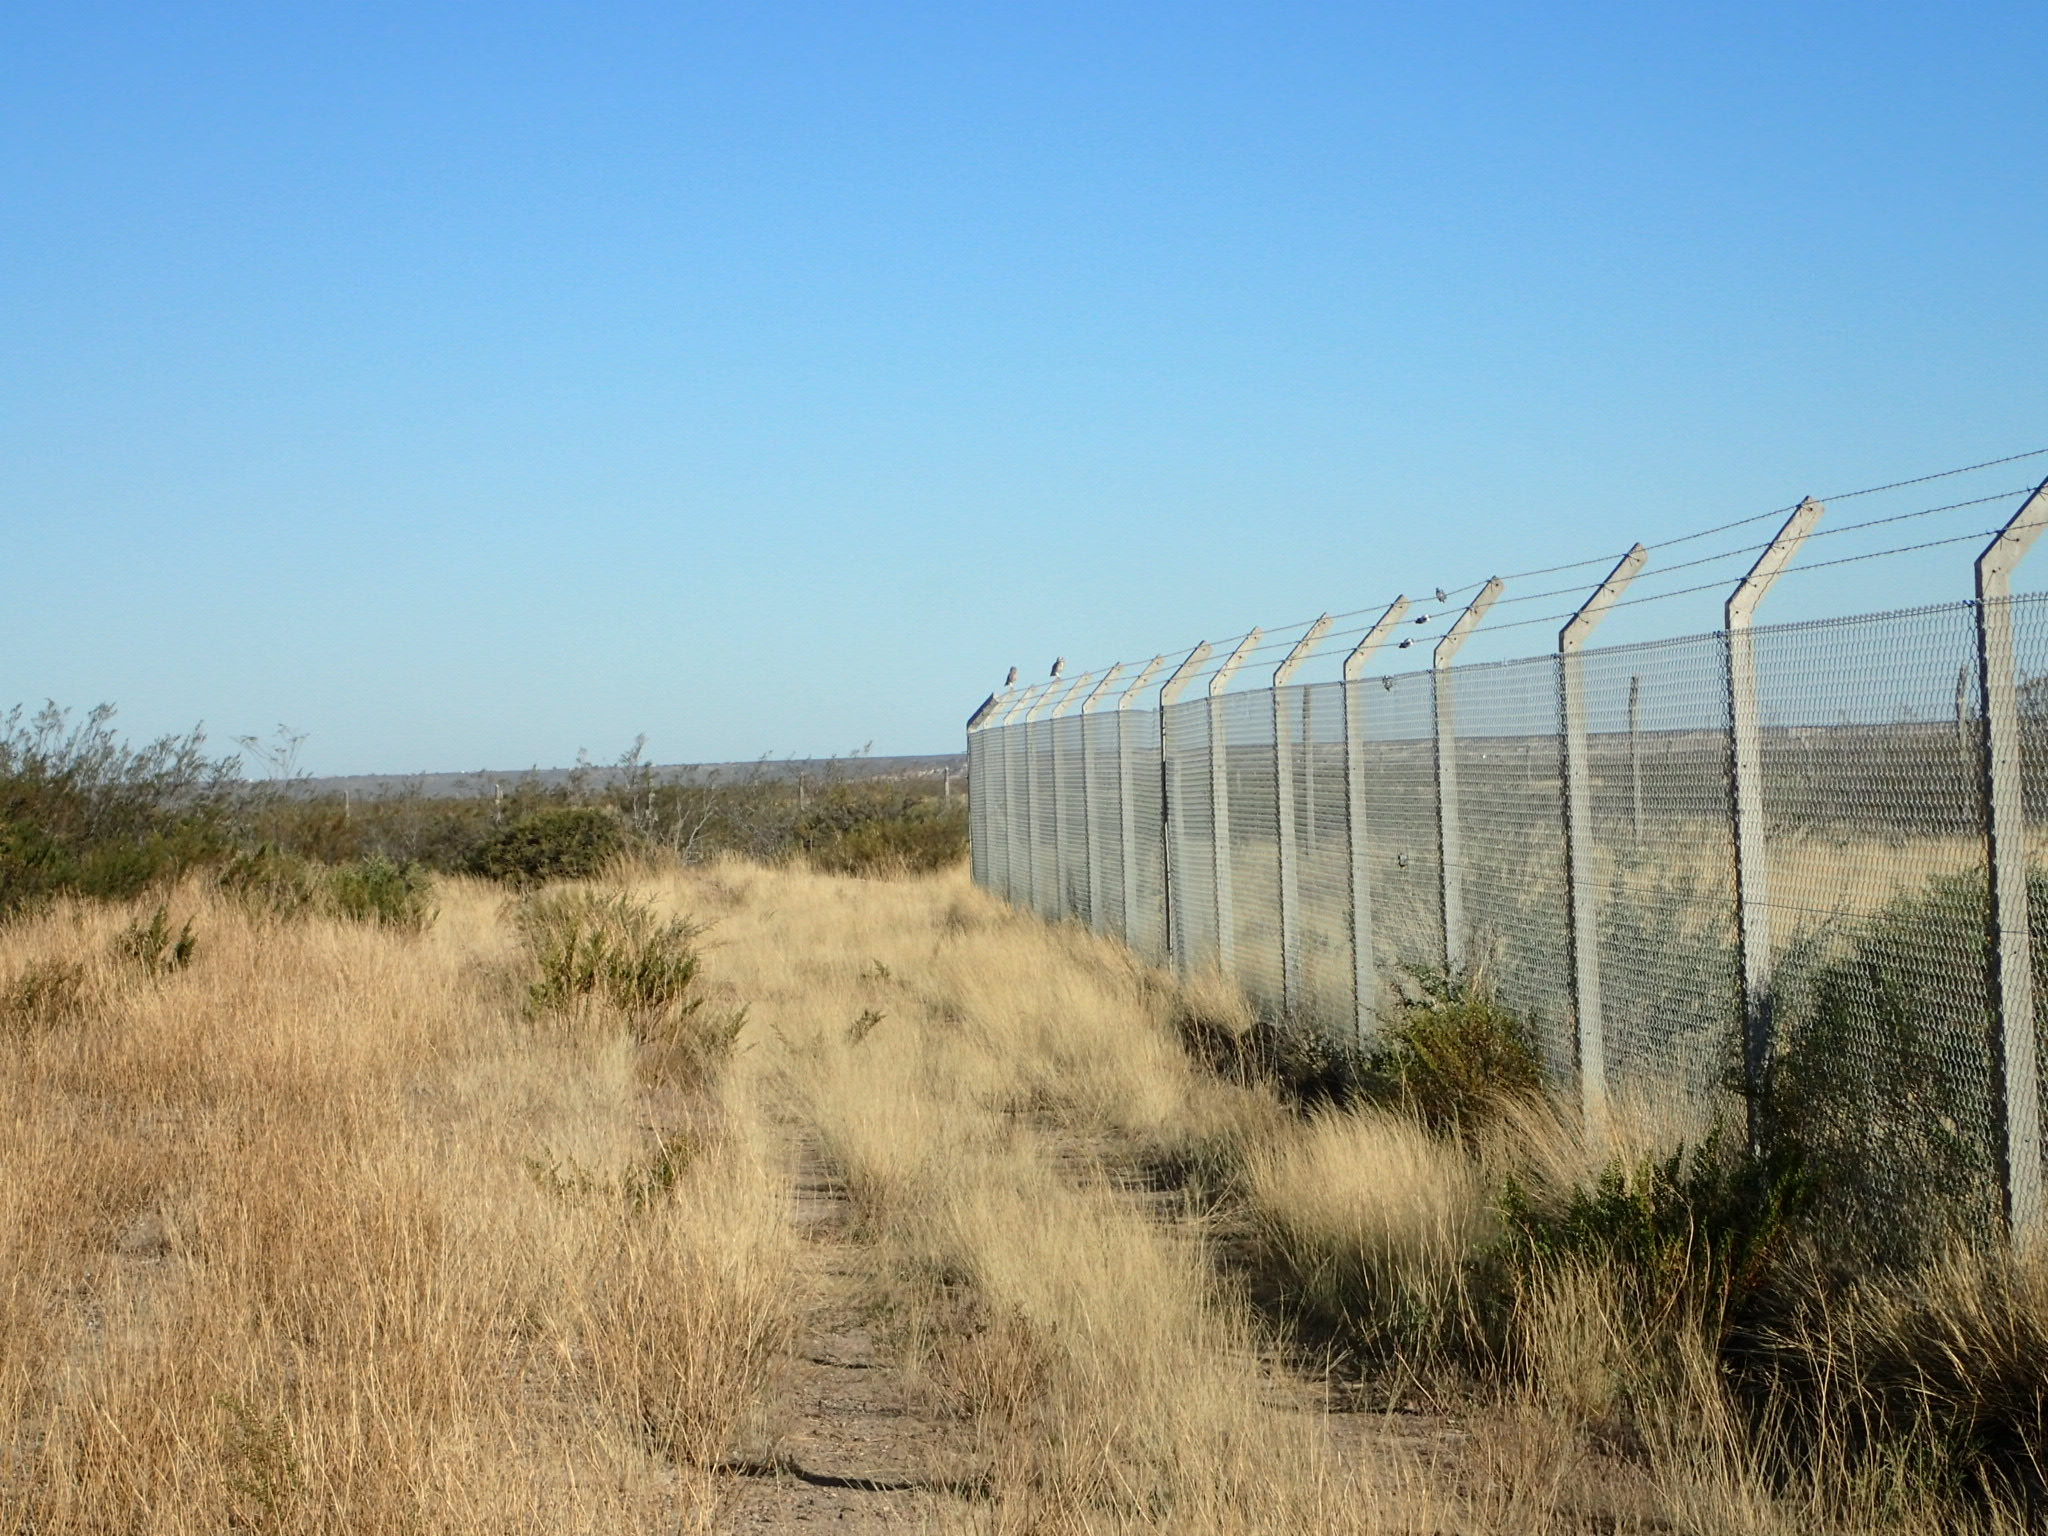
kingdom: Animalia
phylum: Chordata
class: Aves
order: Strigiformes
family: Strigidae
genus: Athene
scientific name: Athene cunicularia
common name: Burrowing owl
